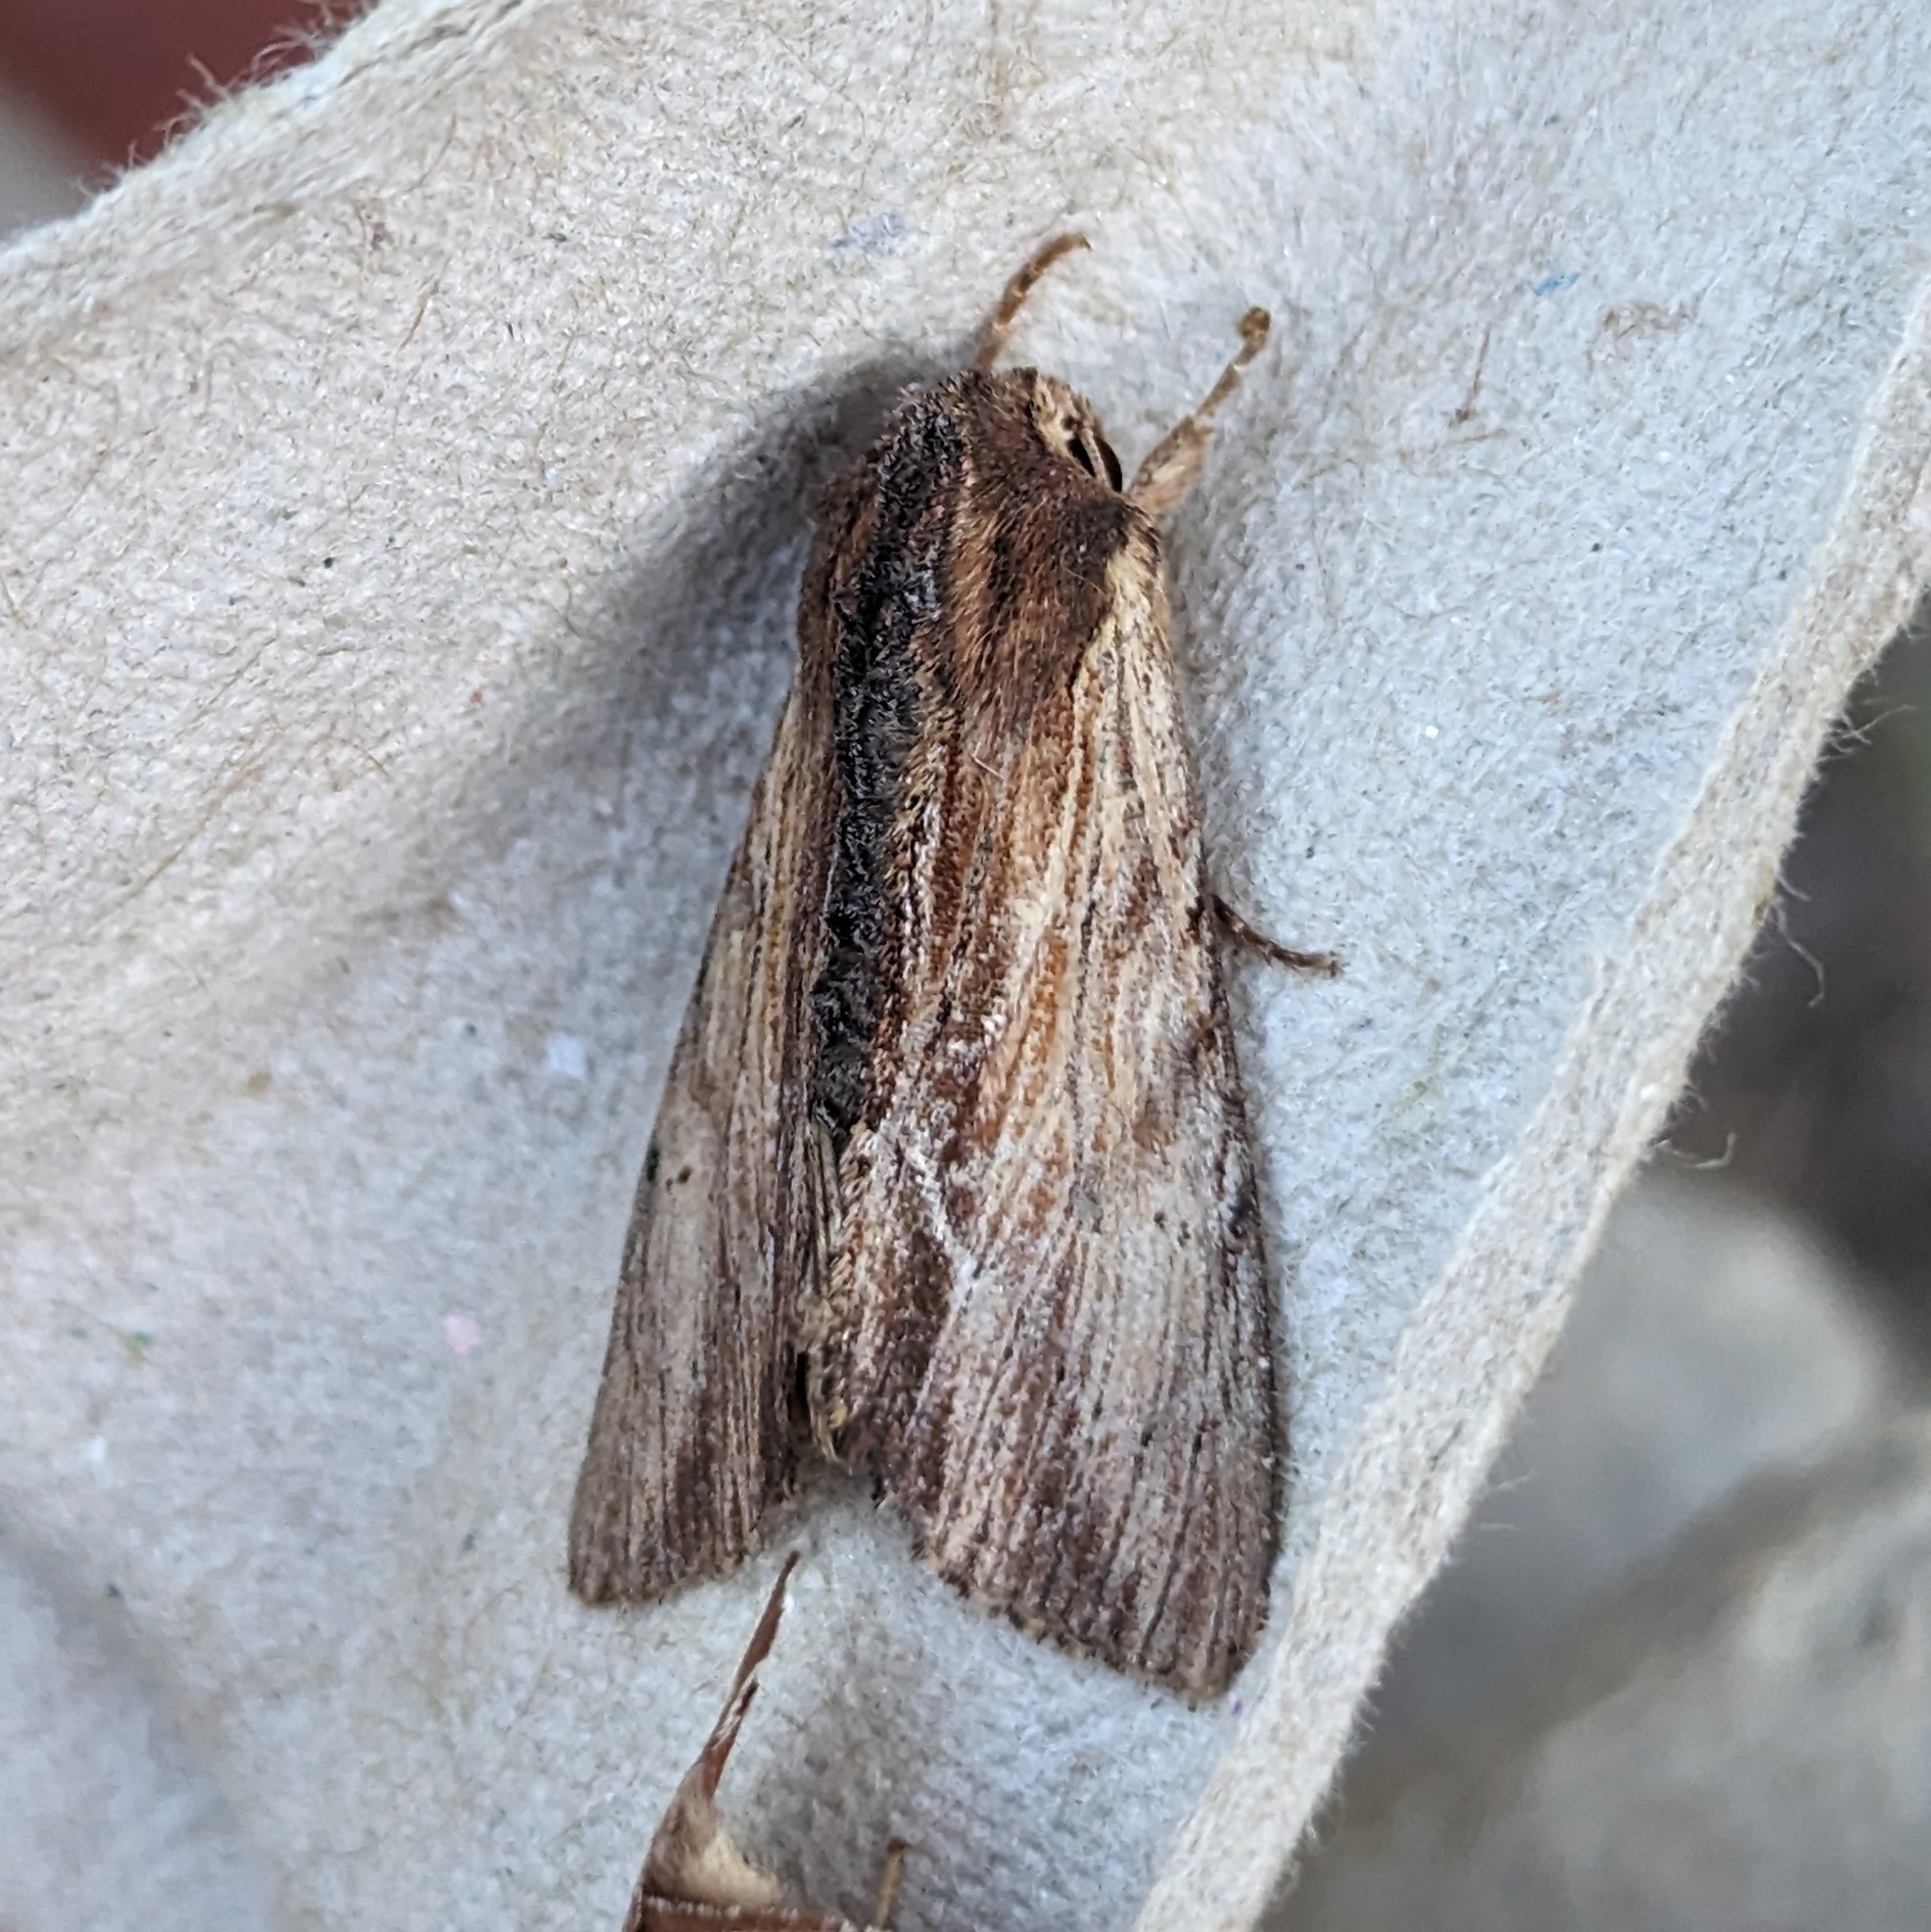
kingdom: Animalia
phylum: Arthropoda
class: Insecta
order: Lepidoptera
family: Noctuidae
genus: Apamea
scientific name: Apamea cuculliformis
